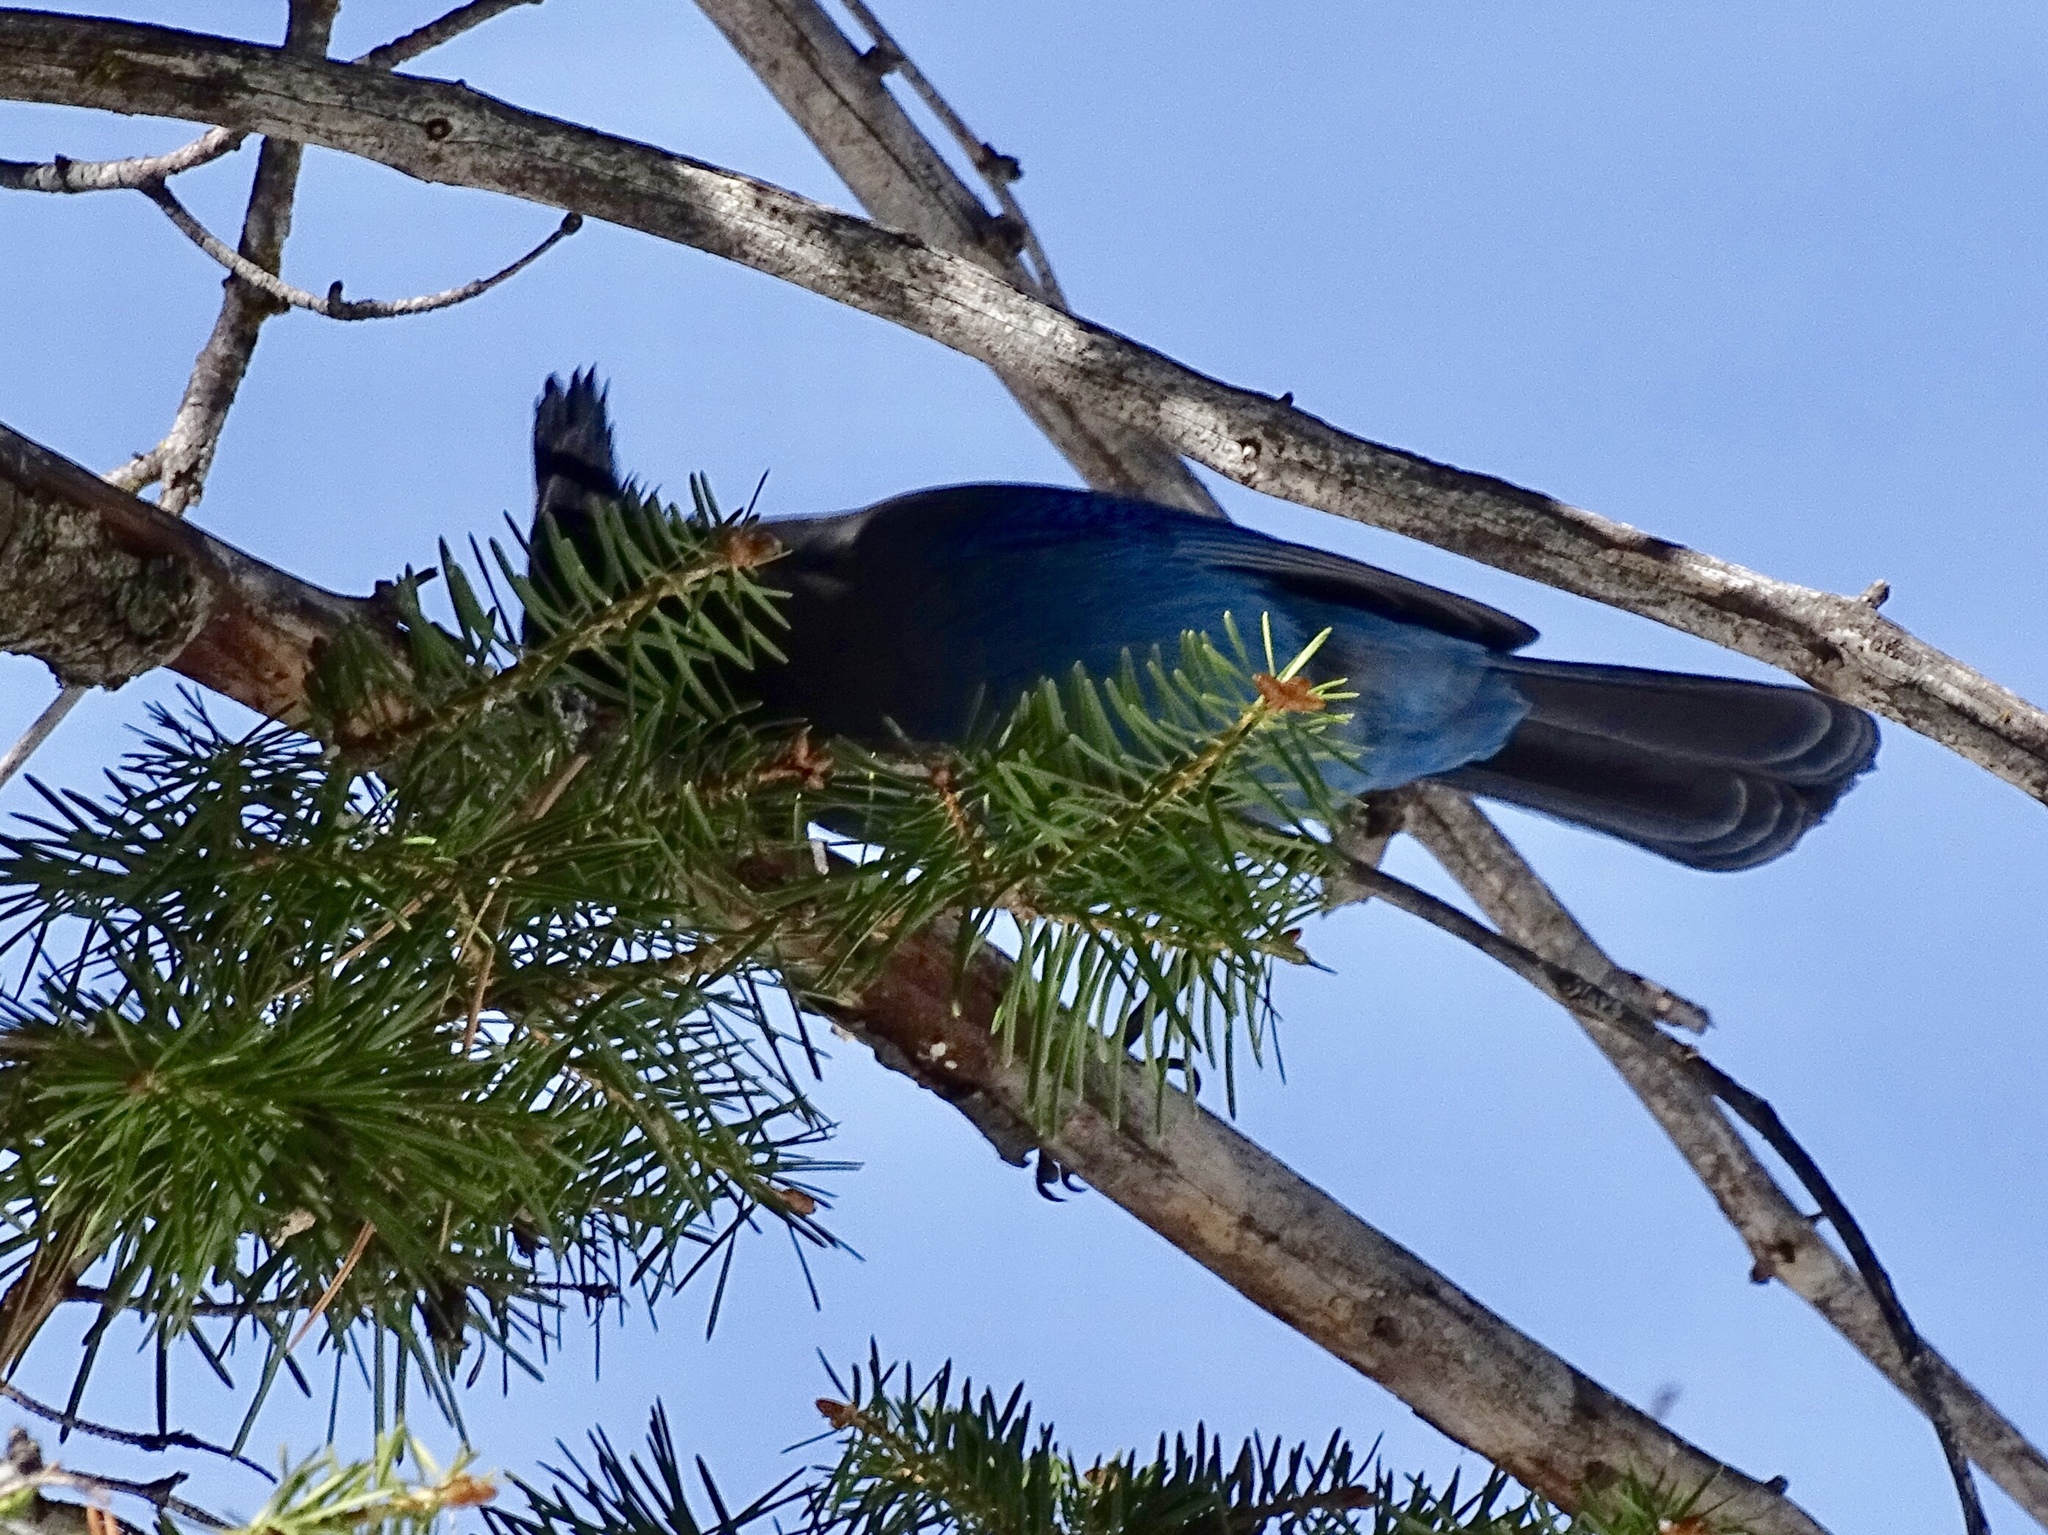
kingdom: Animalia
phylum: Chordata
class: Aves
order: Passeriformes
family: Corvidae
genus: Cyanocitta
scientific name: Cyanocitta stelleri
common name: Steller's jay
